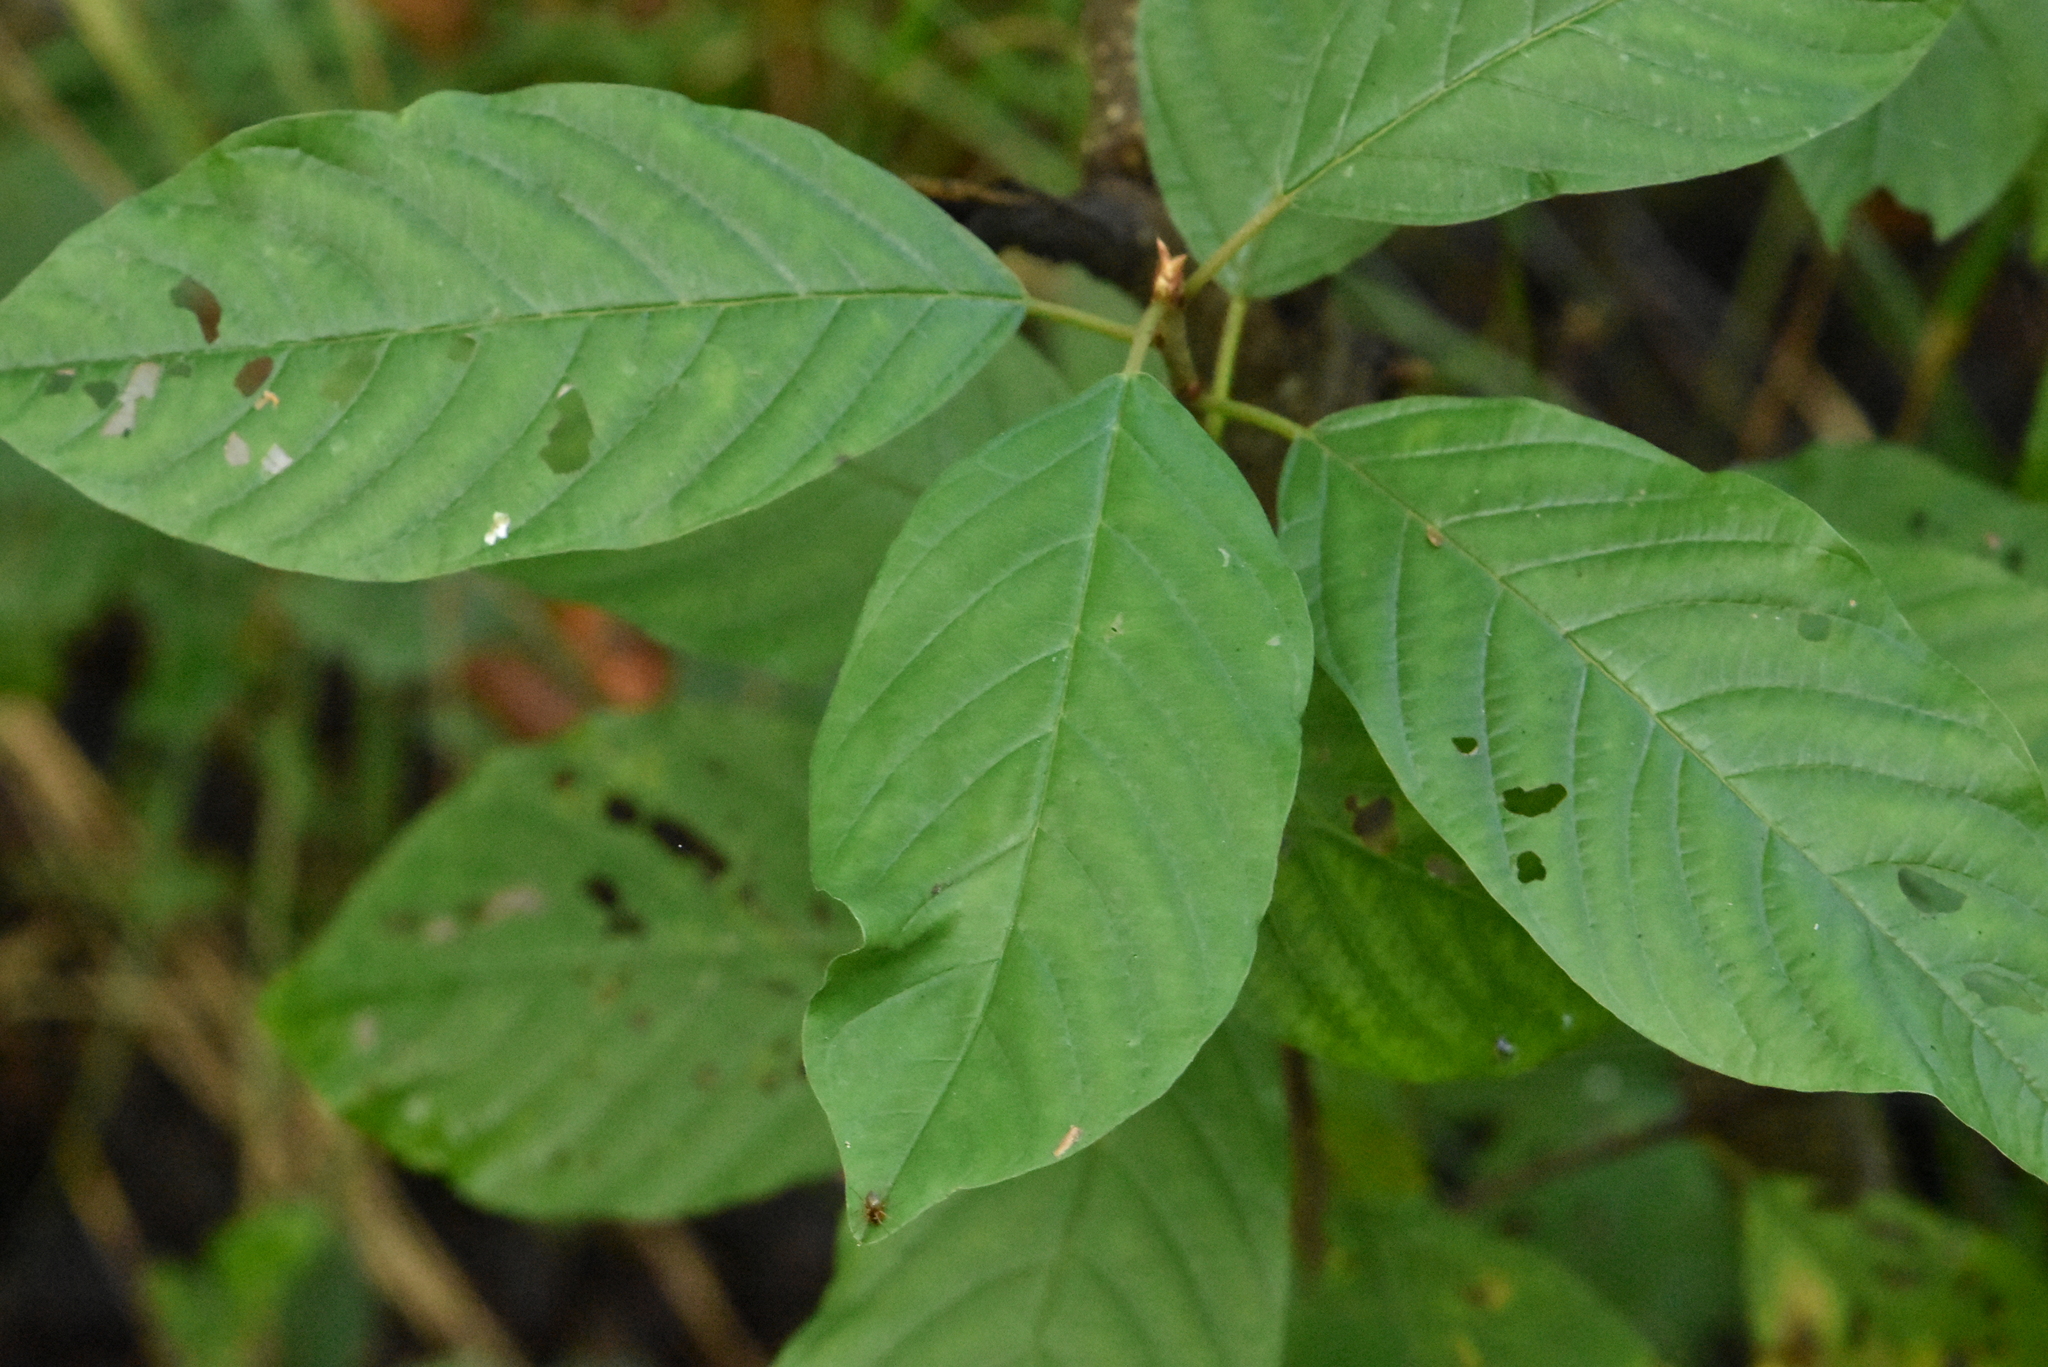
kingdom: Plantae
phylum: Tracheophyta
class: Magnoliopsida
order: Rosales
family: Rhamnaceae
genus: Frangula
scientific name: Frangula alnus
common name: Alder buckthorn
